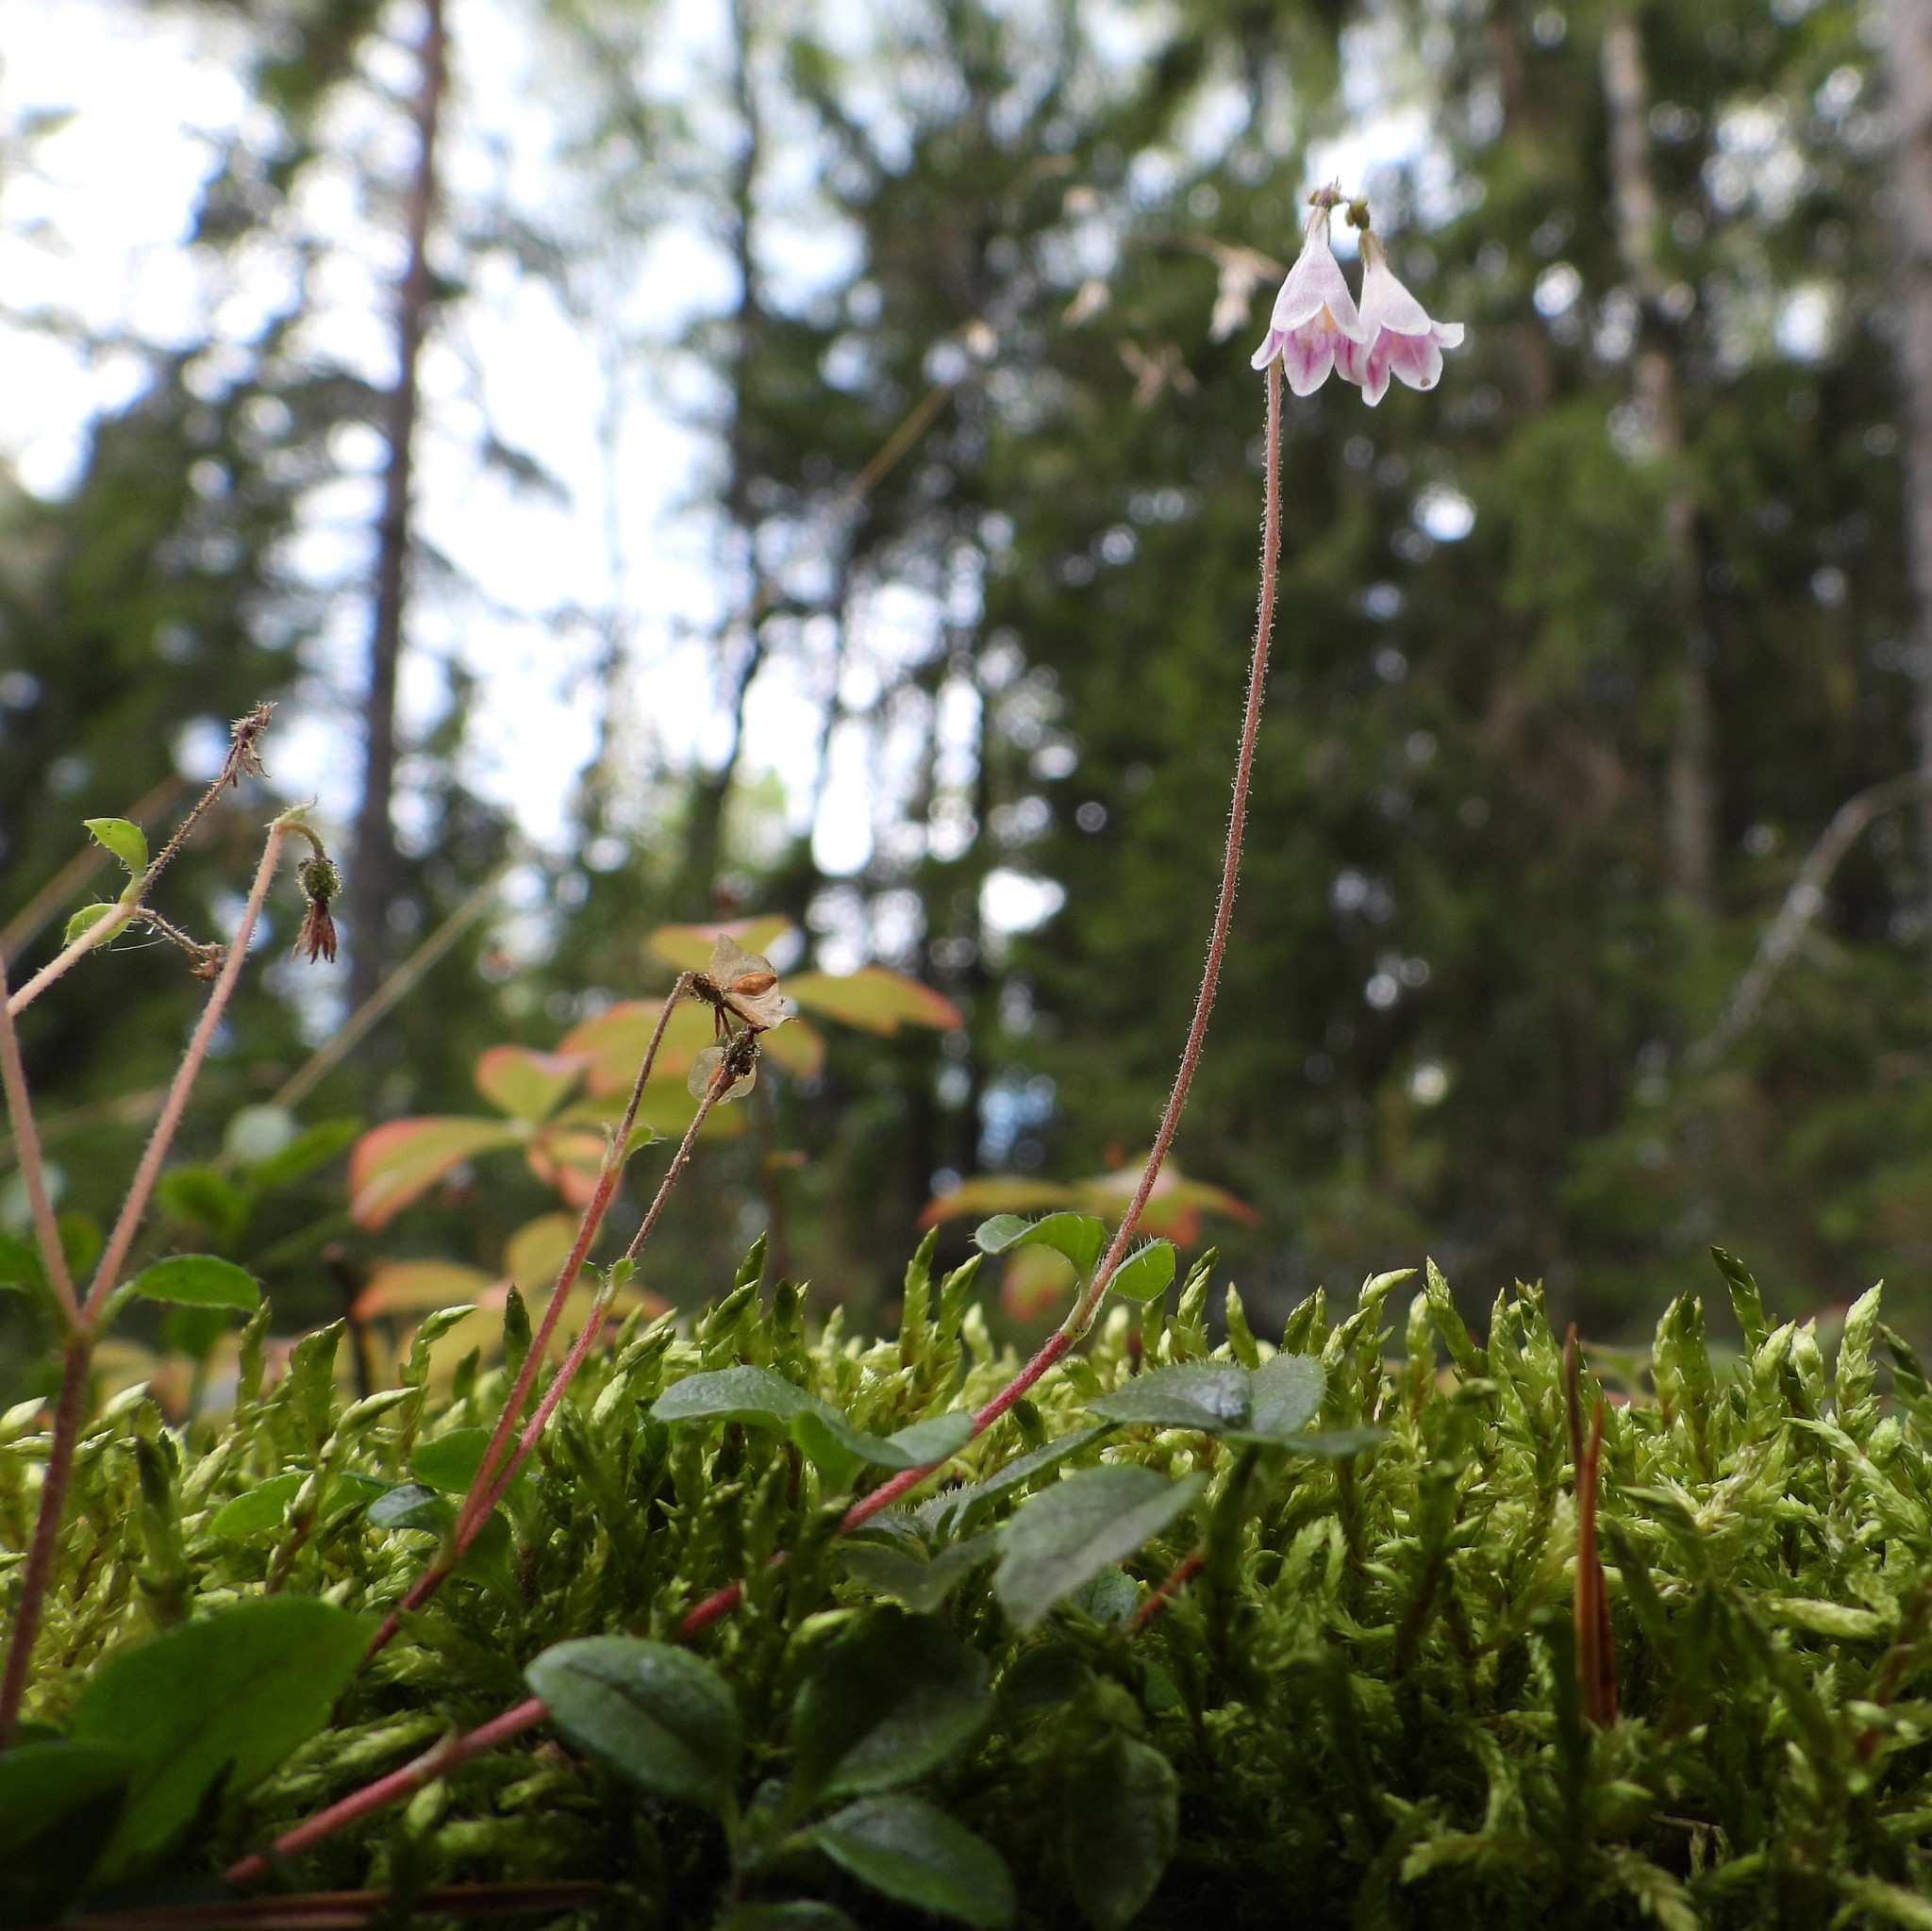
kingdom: Plantae
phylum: Tracheophyta
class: Magnoliopsida
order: Dipsacales
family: Caprifoliaceae
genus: Linnaea
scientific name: Linnaea borealis
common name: Twinflower
